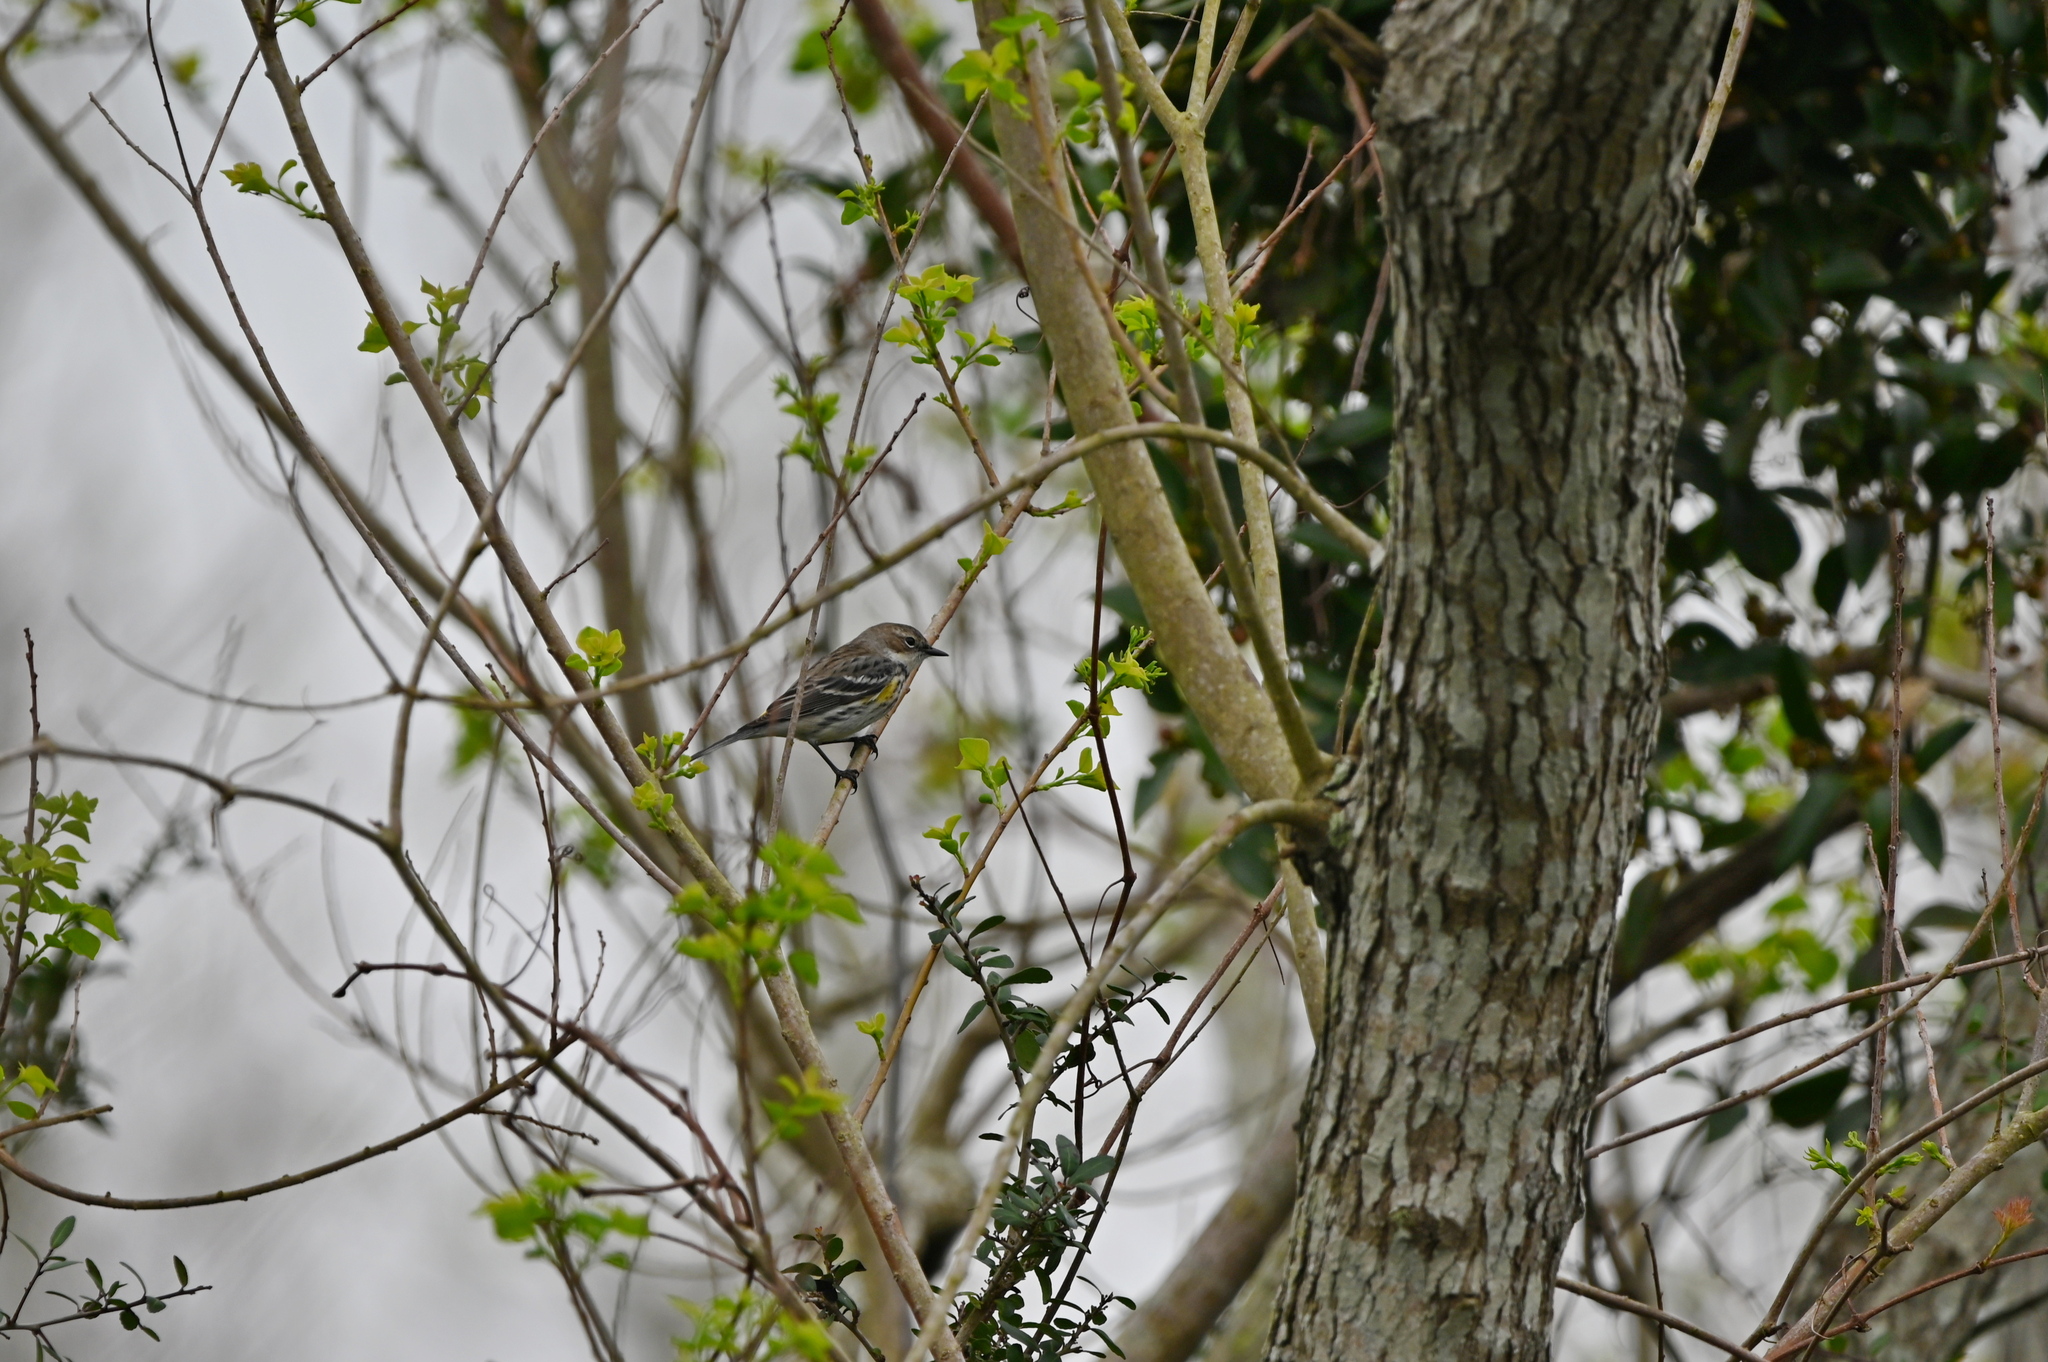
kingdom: Animalia
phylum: Chordata
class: Aves
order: Passeriformes
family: Parulidae
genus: Setophaga
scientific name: Setophaga coronata
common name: Myrtle warbler
